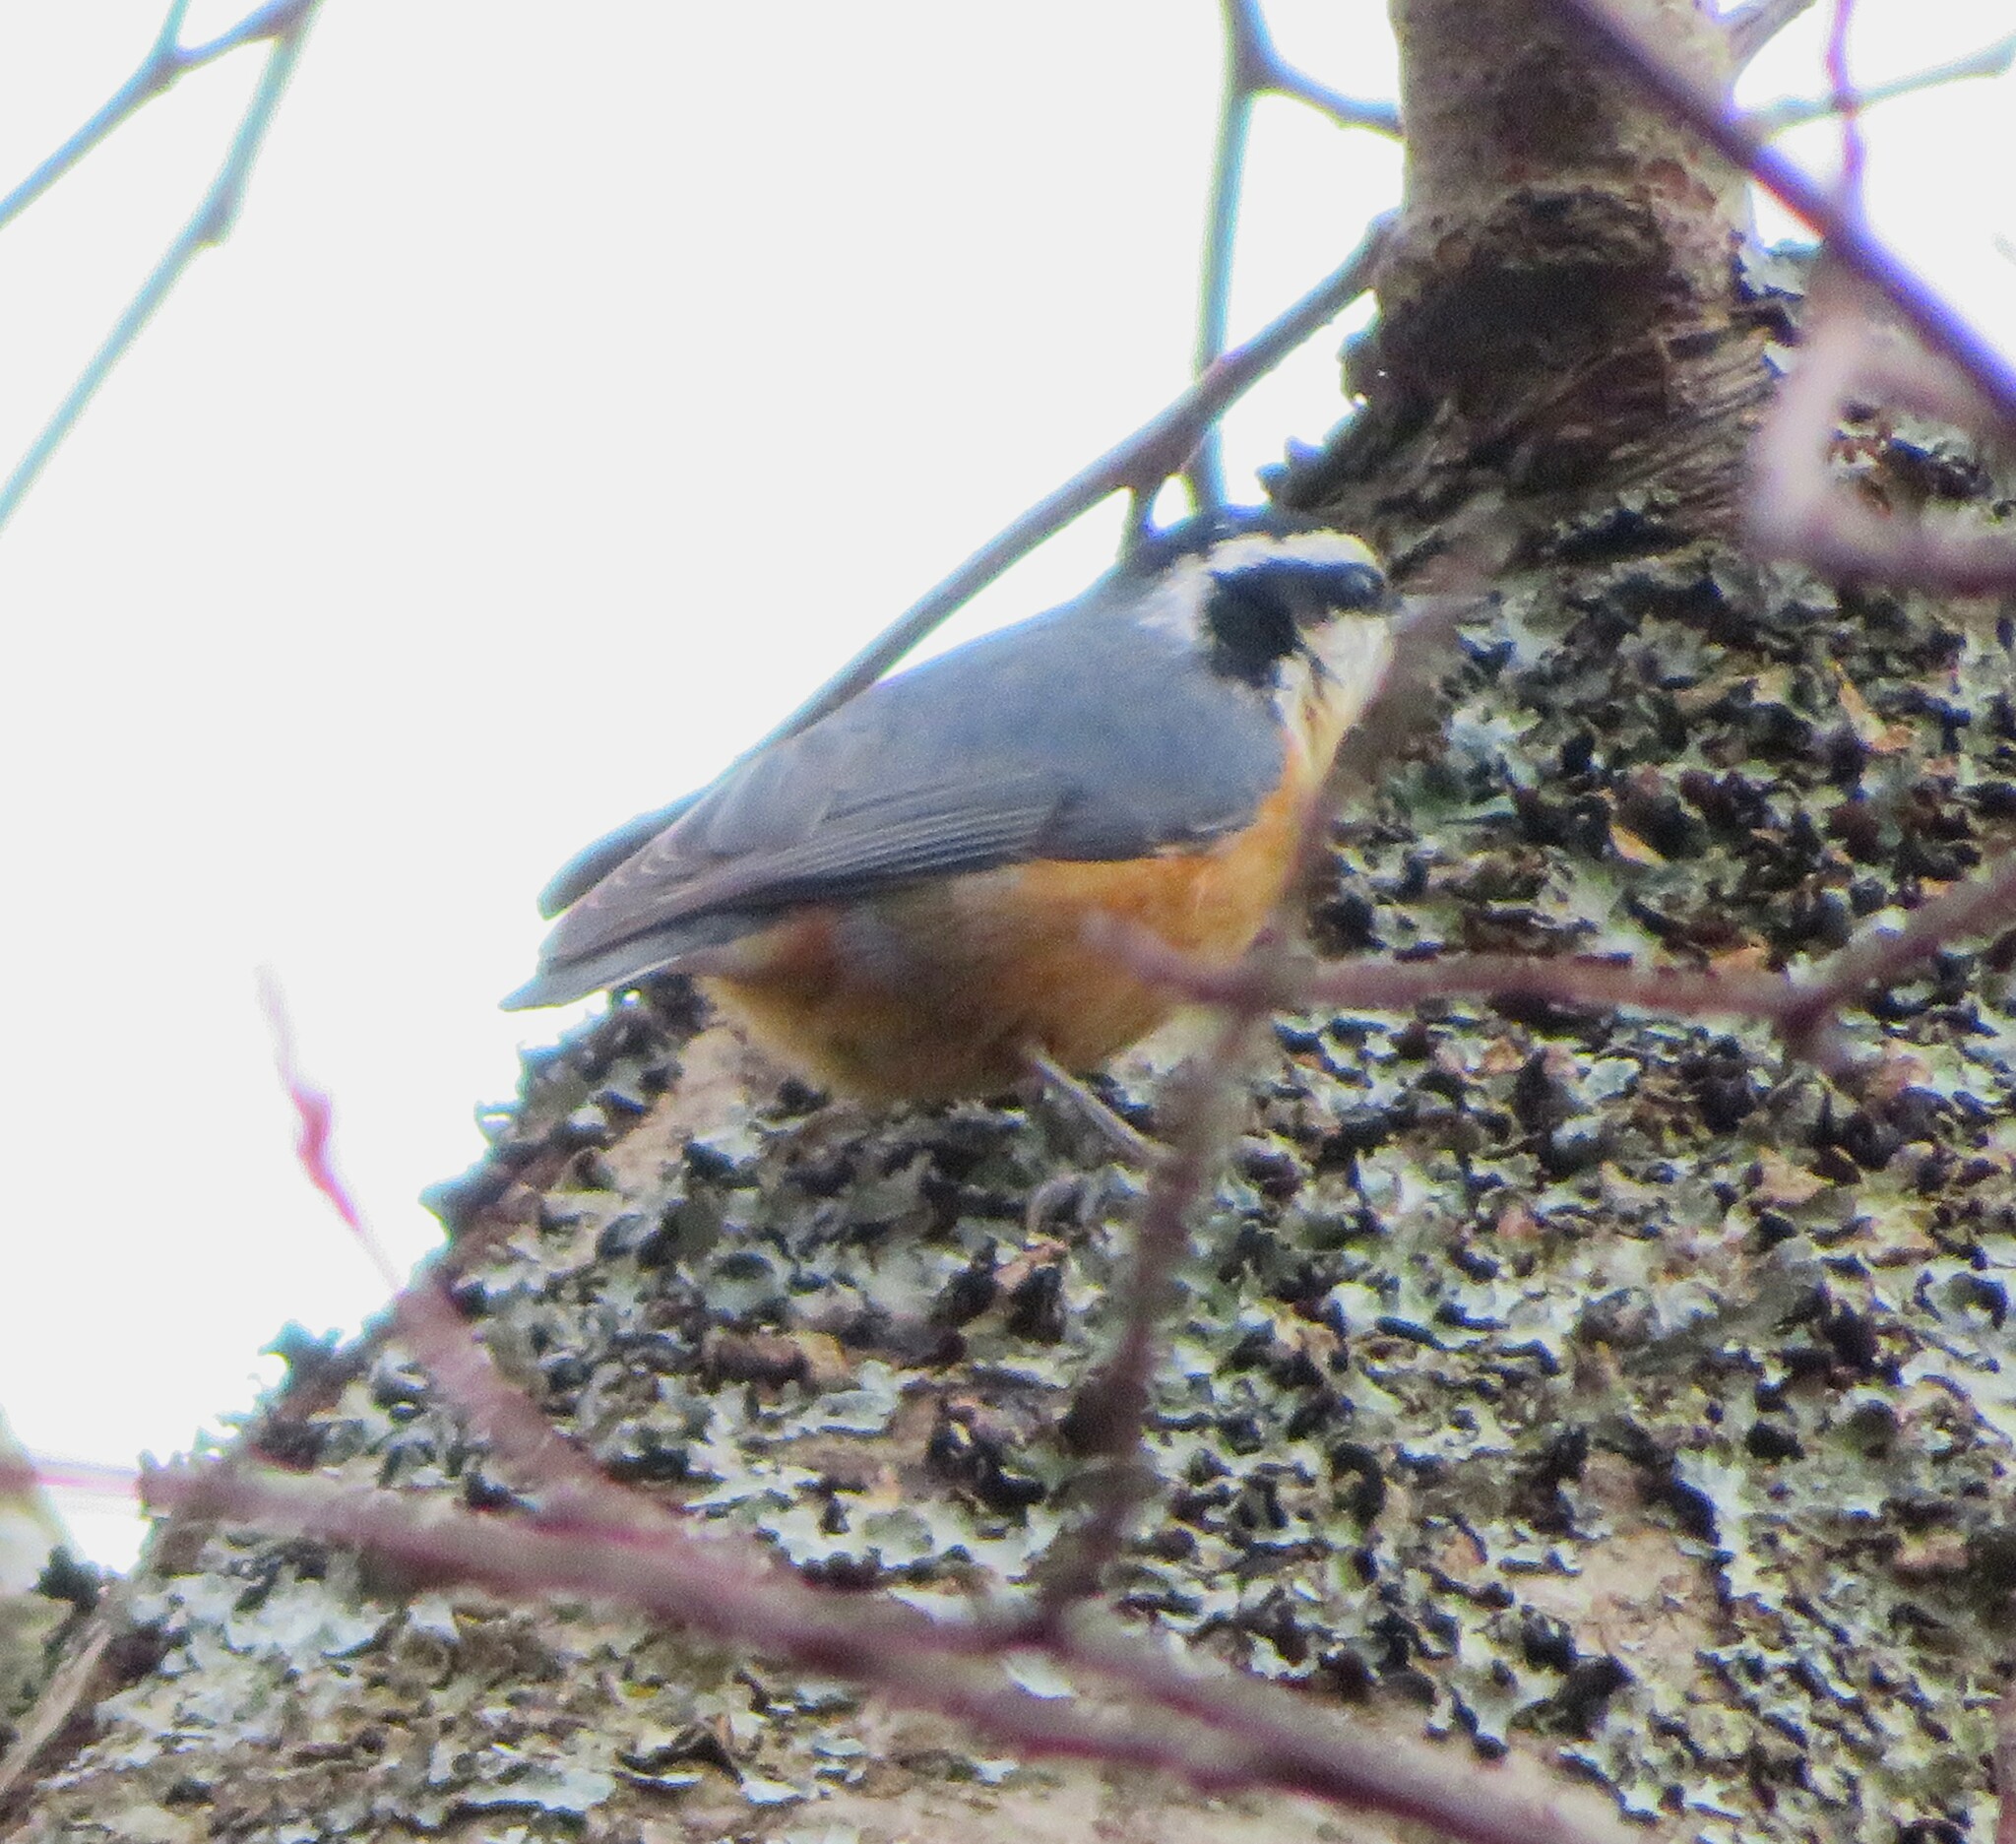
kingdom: Animalia
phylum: Chordata
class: Aves
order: Passeriformes
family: Sittidae
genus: Sitta
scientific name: Sitta canadensis
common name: Red-breasted nuthatch
